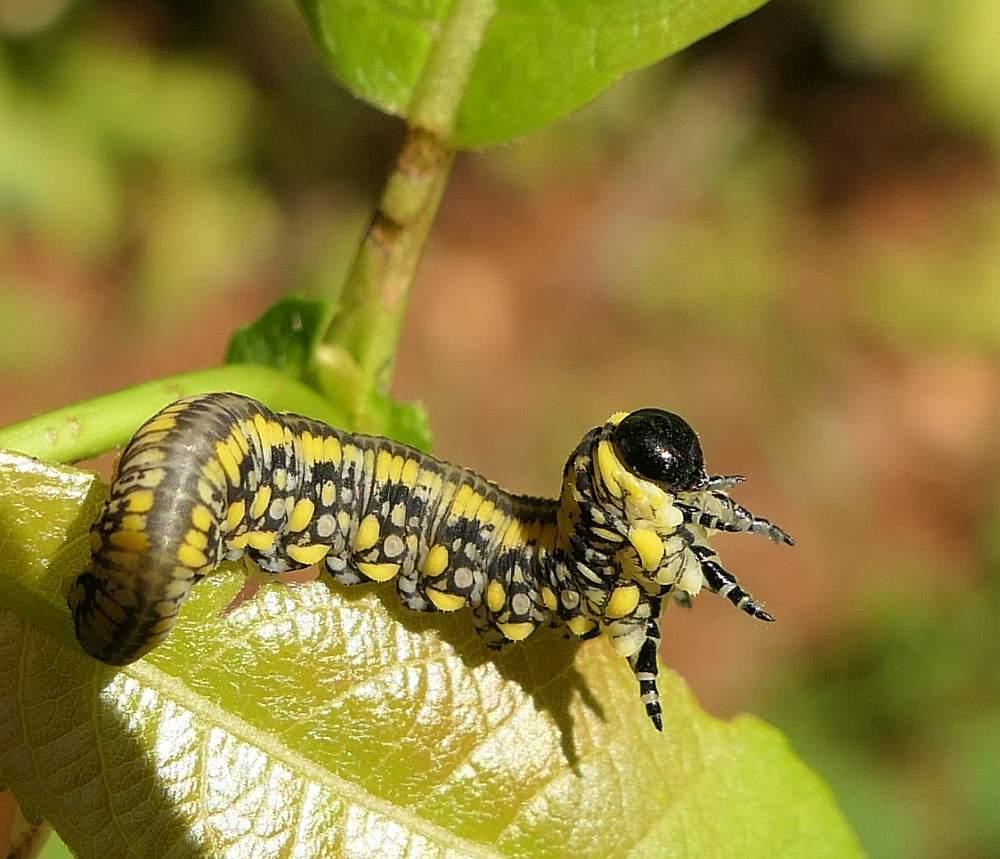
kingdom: Animalia
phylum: Arthropoda
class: Insecta
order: Hymenoptera
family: Diprionidae
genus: Diprion
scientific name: Diprion similis
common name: Pine sawfly
